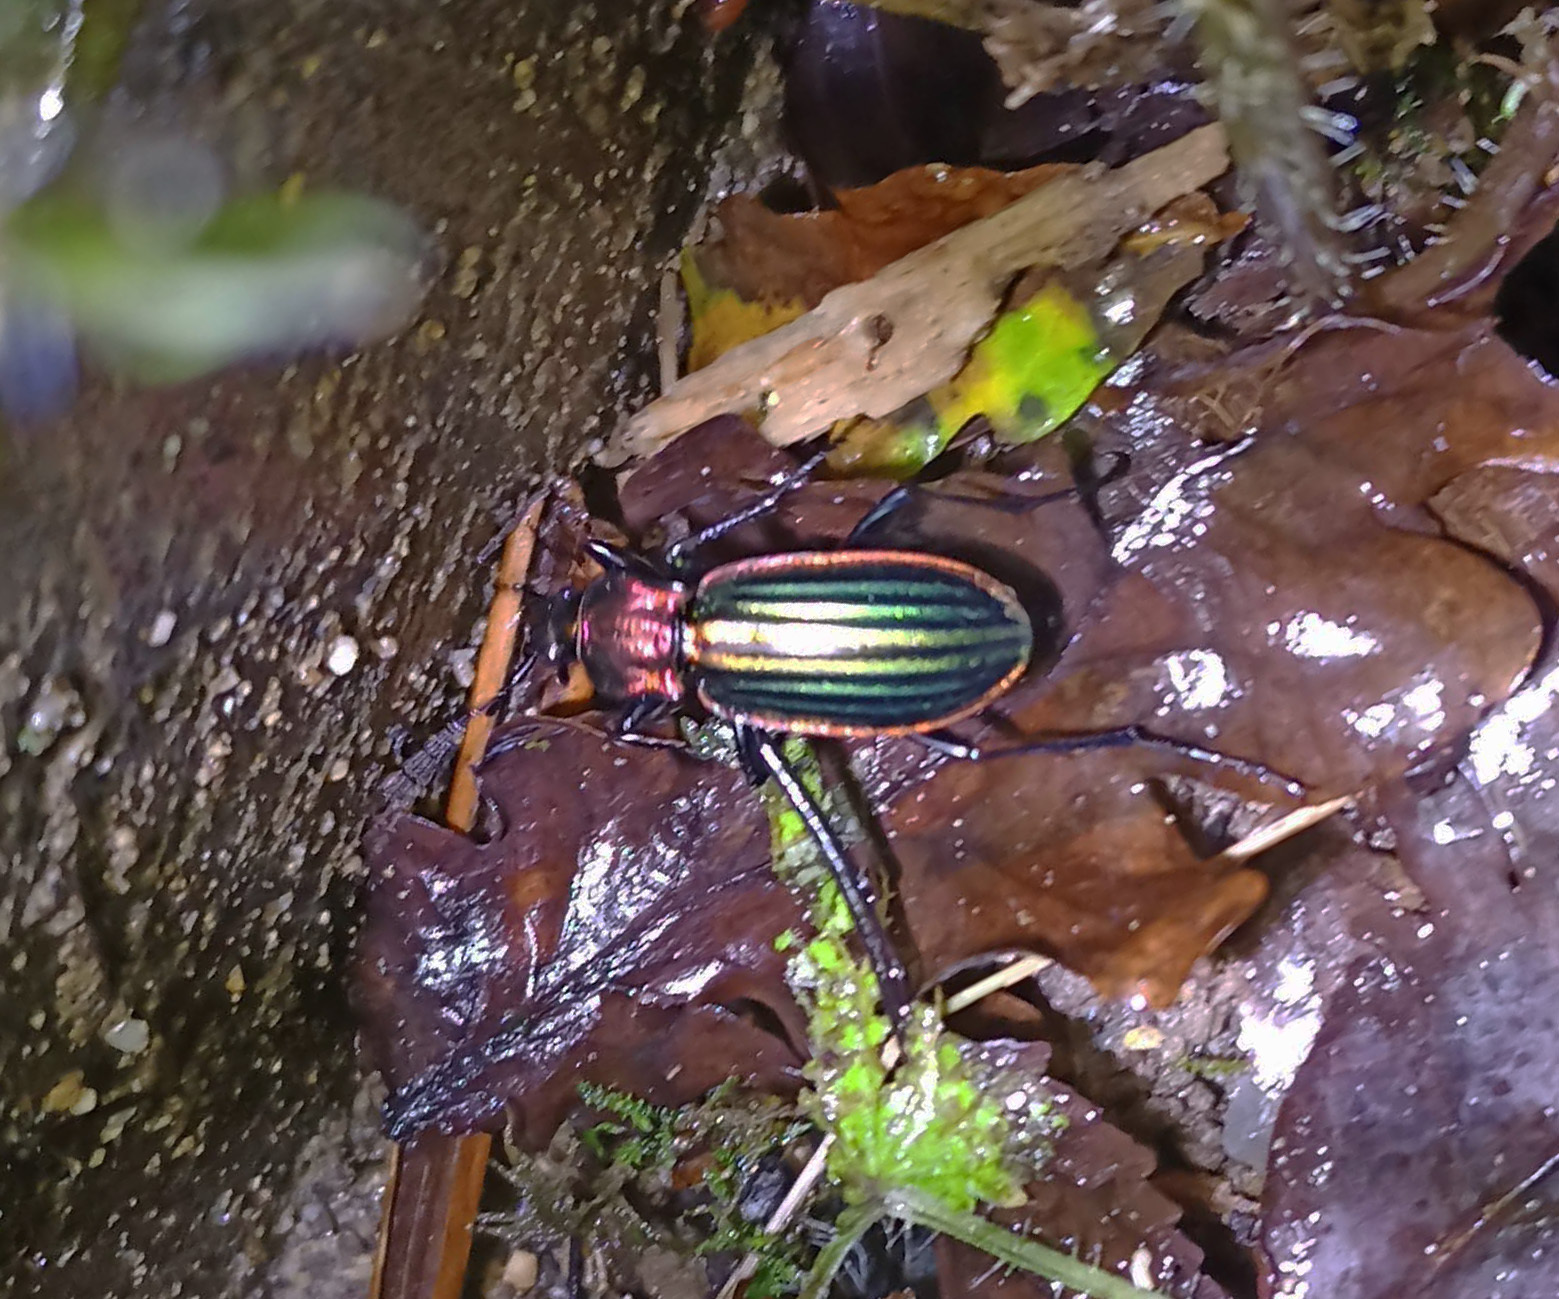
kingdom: Animalia
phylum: Arthropoda
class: Insecta
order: Coleoptera
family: Carabidae
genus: Carabus
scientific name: Carabus strasseri
